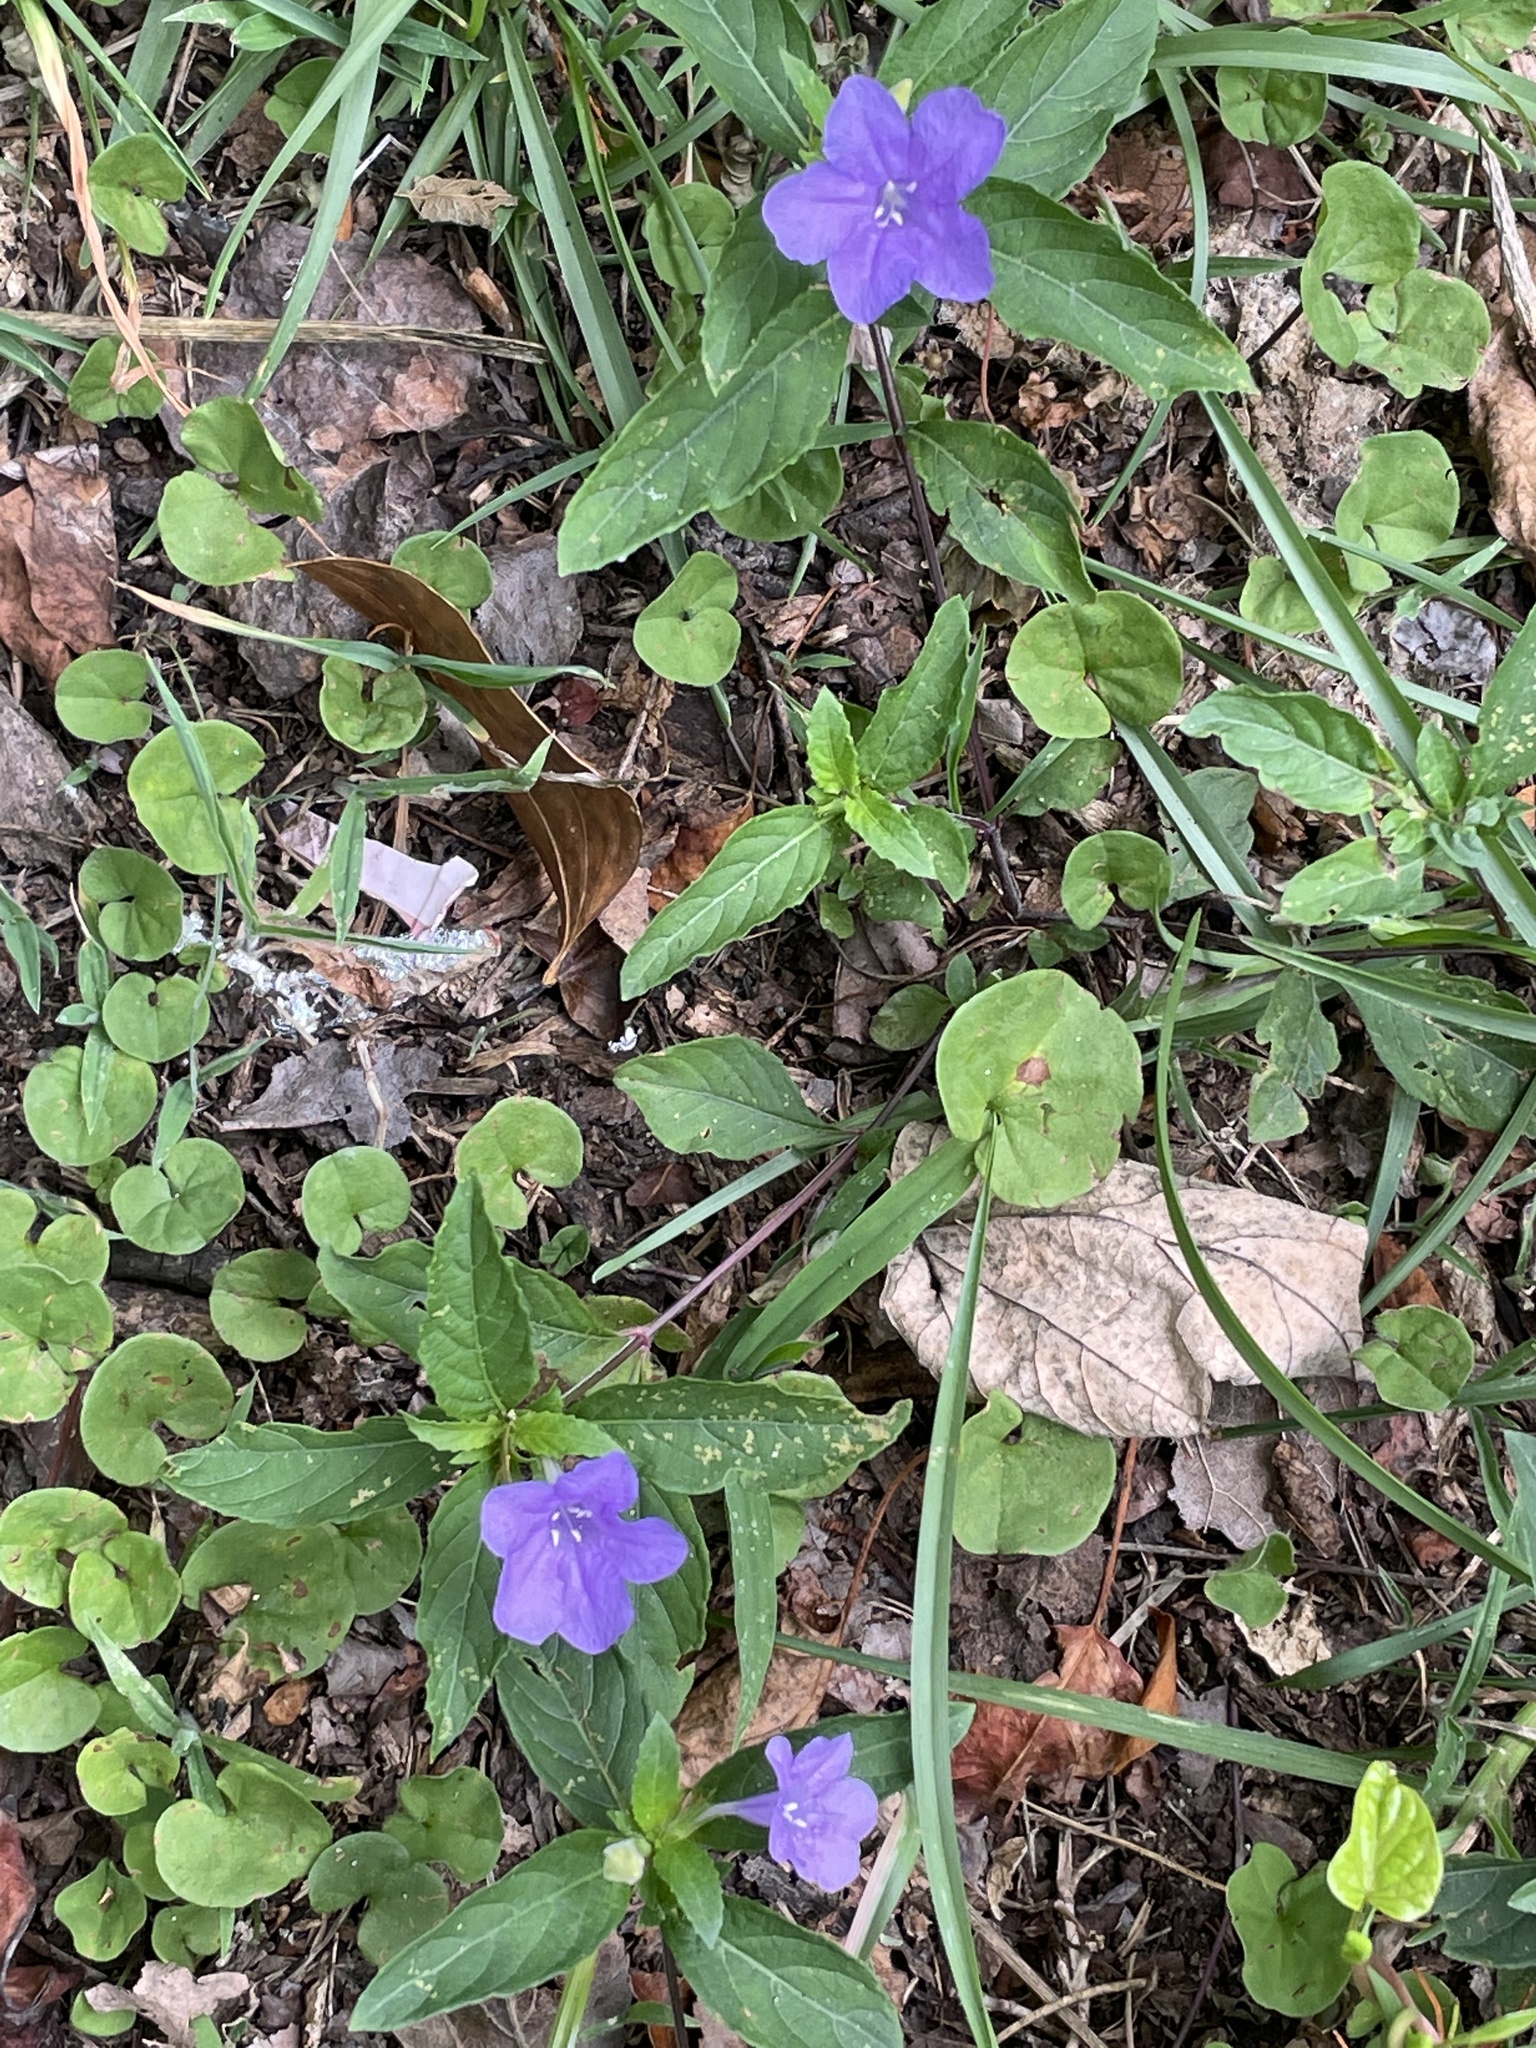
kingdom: Plantae
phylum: Tracheophyta
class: Magnoliopsida
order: Lamiales
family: Acanthaceae
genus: Ruellia
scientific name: Ruellia caroliniensis
